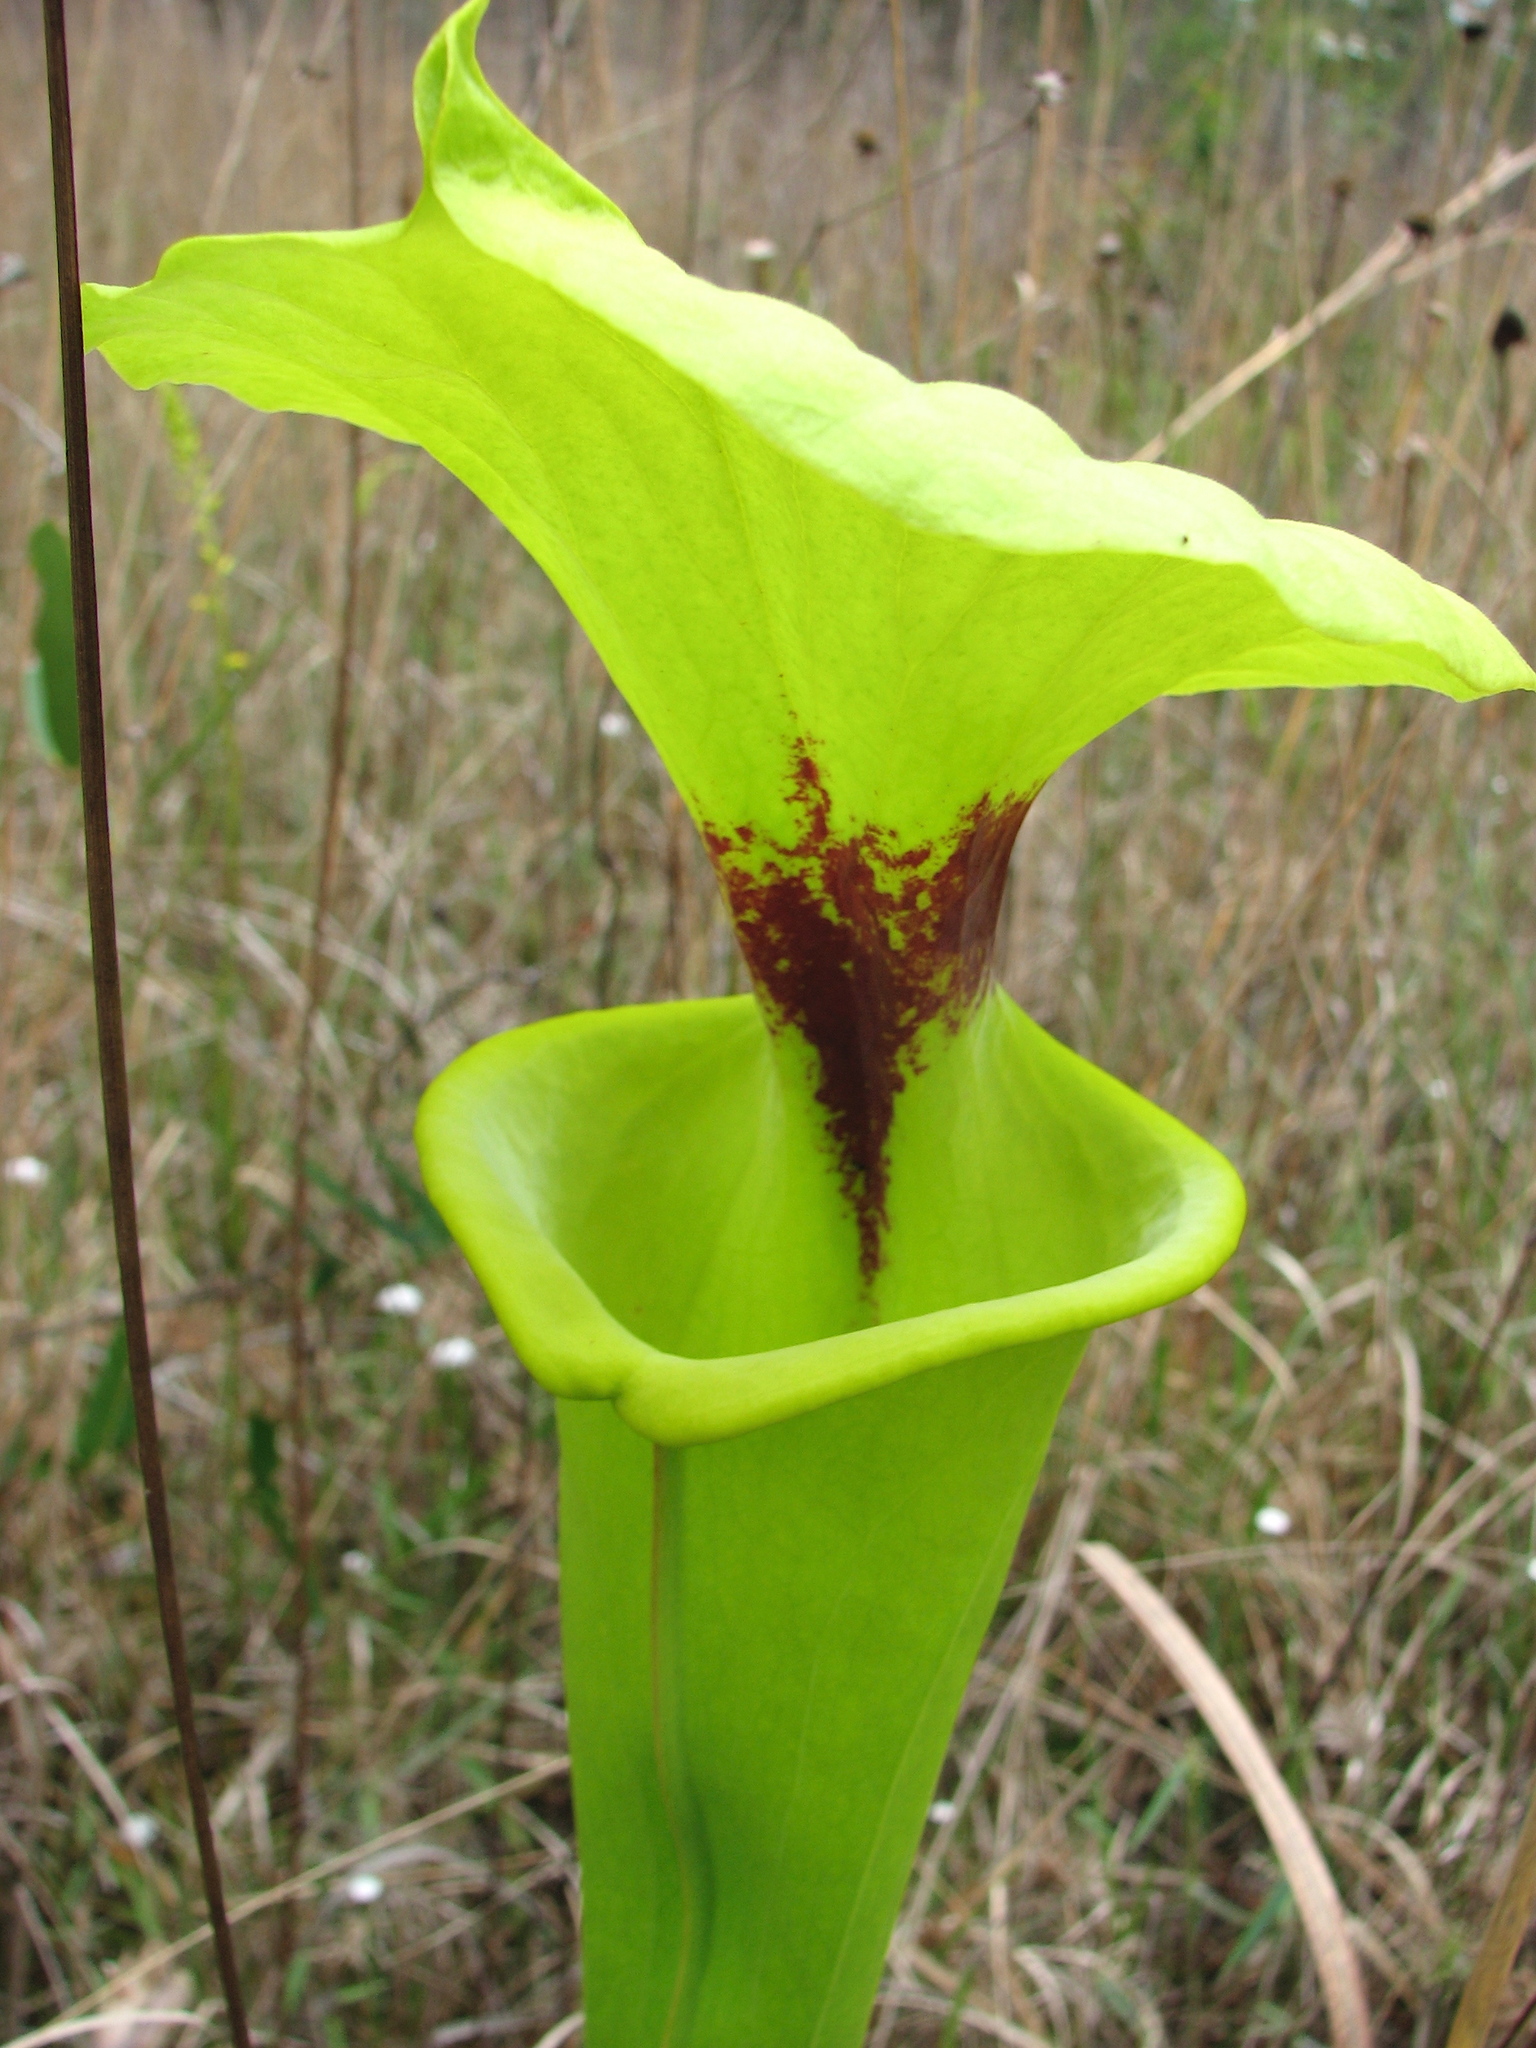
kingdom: Plantae
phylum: Tracheophyta
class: Magnoliopsida
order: Ericales
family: Sarraceniaceae
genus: Sarracenia
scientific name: Sarracenia flava
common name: Trumpets
